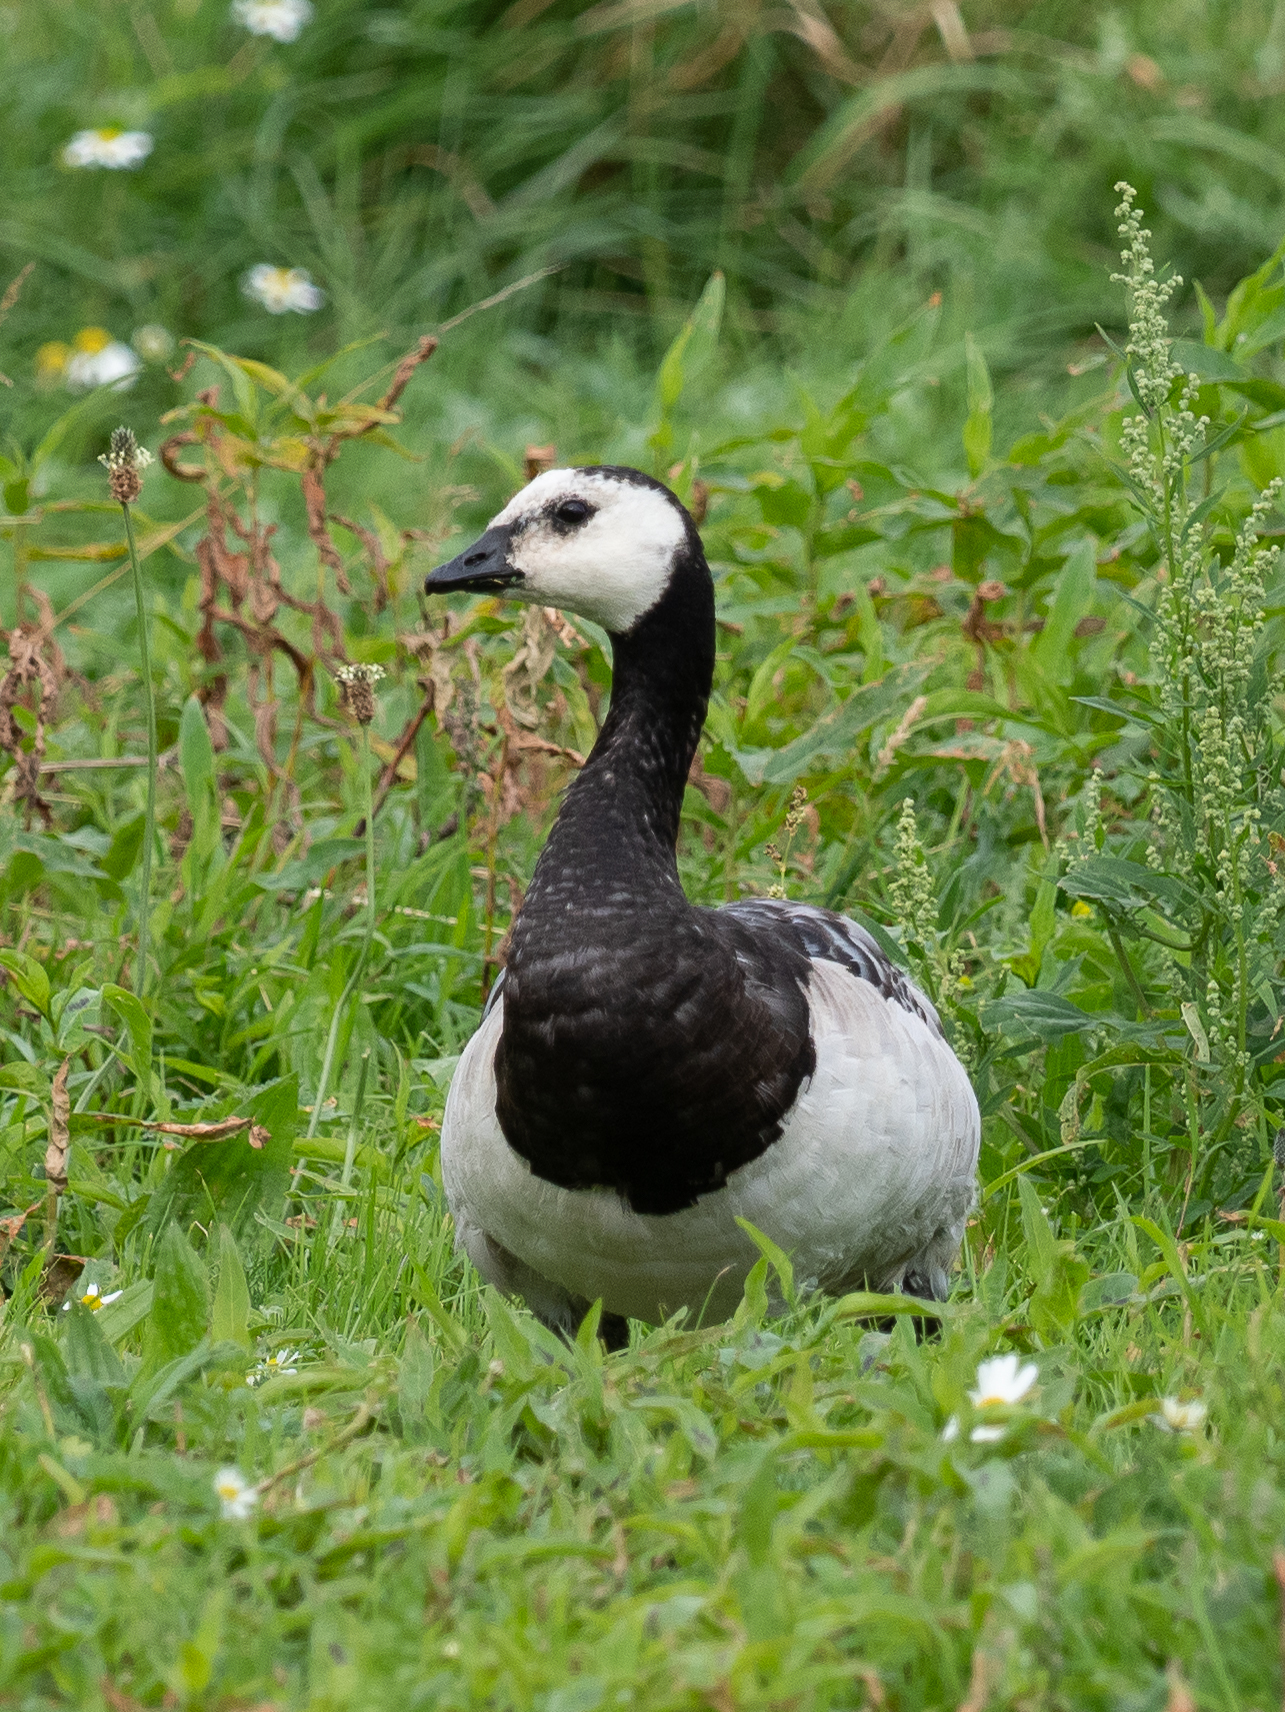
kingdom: Animalia
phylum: Chordata
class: Aves
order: Anseriformes
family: Anatidae
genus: Branta
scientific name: Branta leucopsis
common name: Barnacle goose
